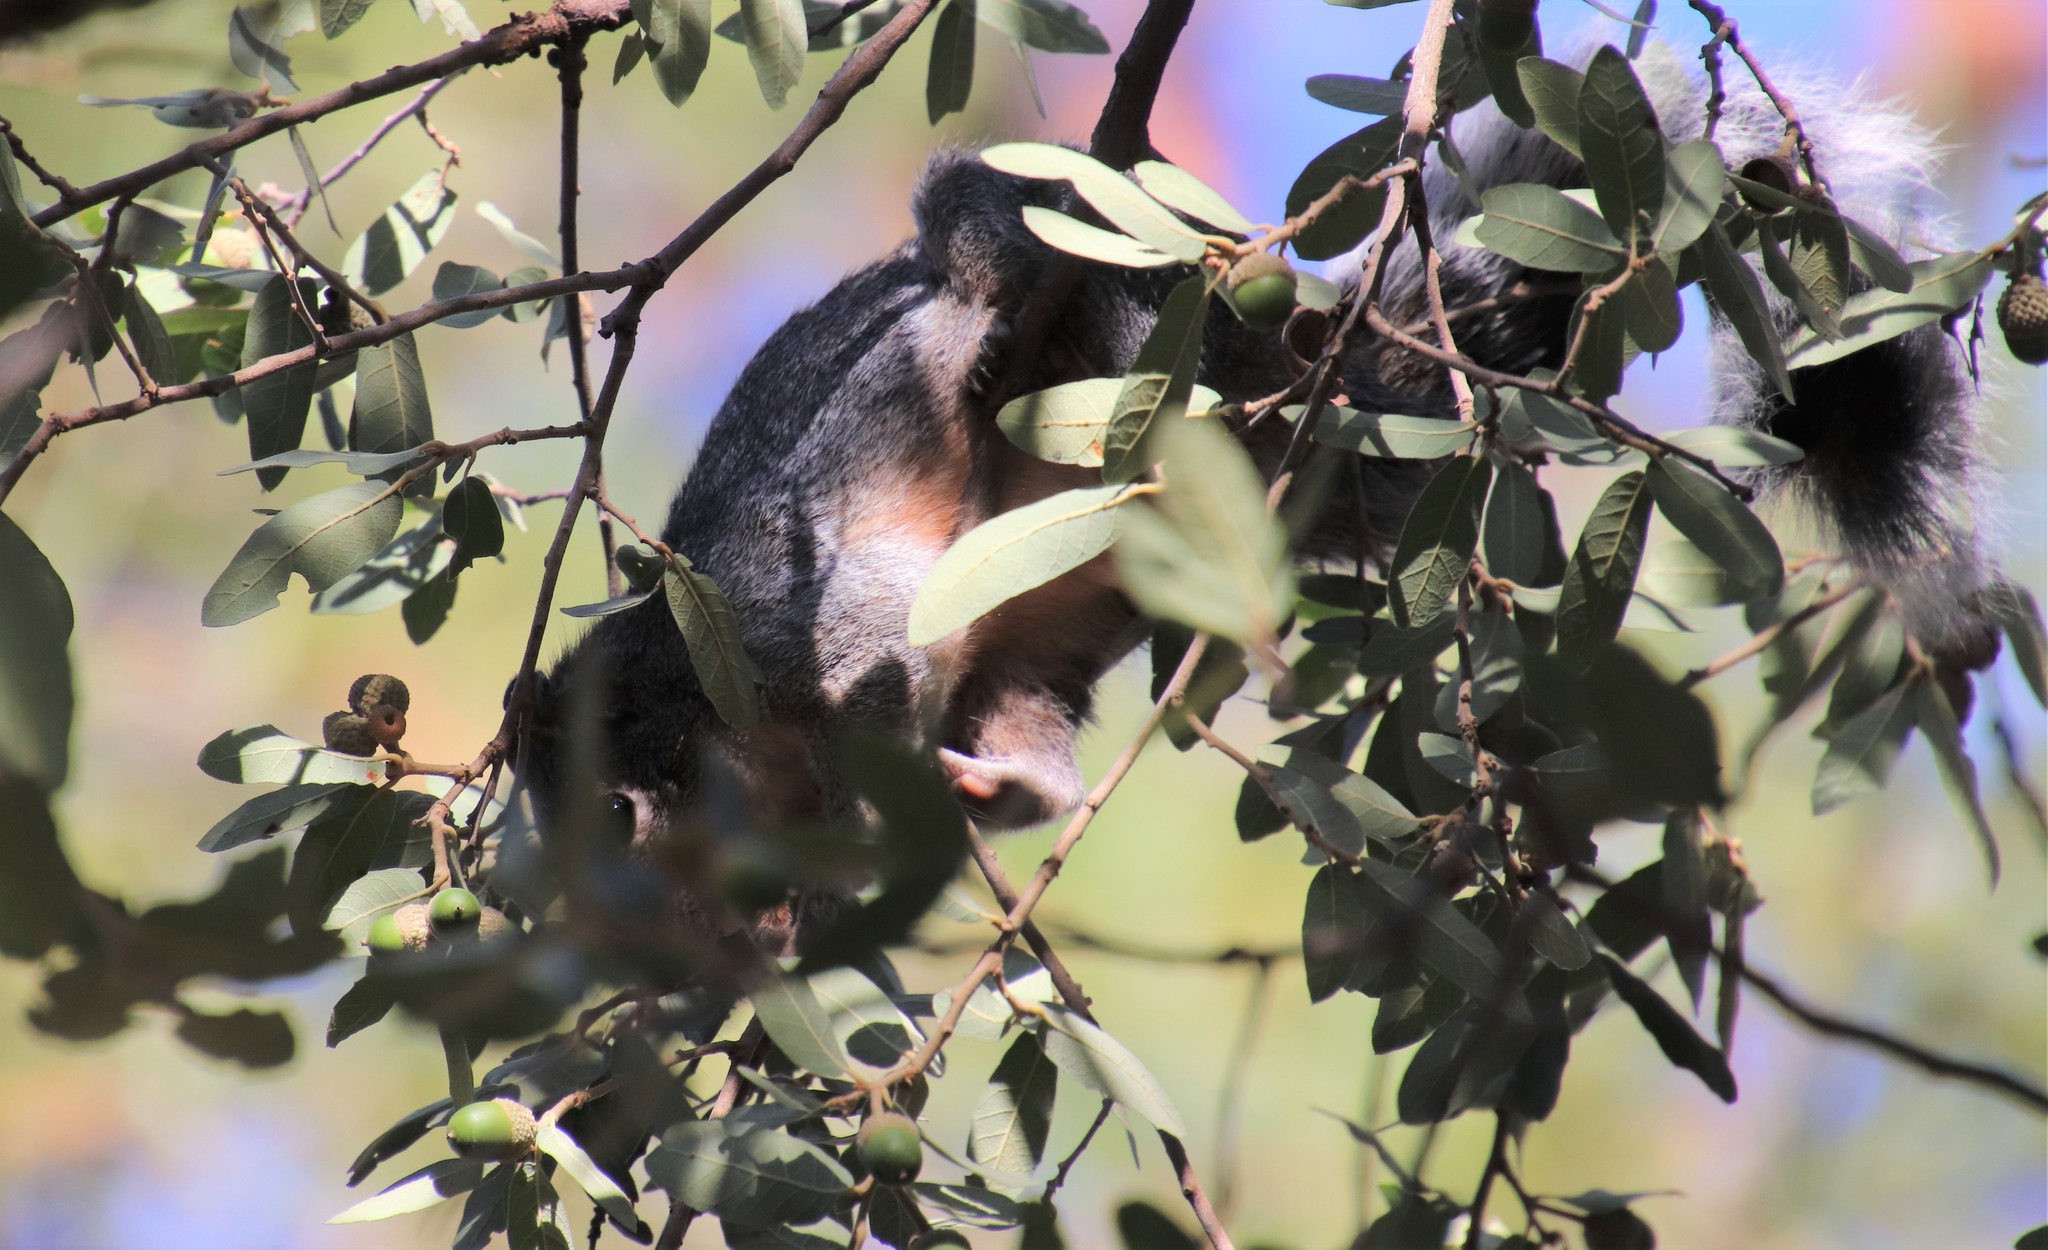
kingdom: Animalia
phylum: Chordata
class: Mammalia
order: Rodentia
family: Sciuridae
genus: Sciurus
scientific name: Sciurus arizonensis
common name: Arizona gray squirrel
